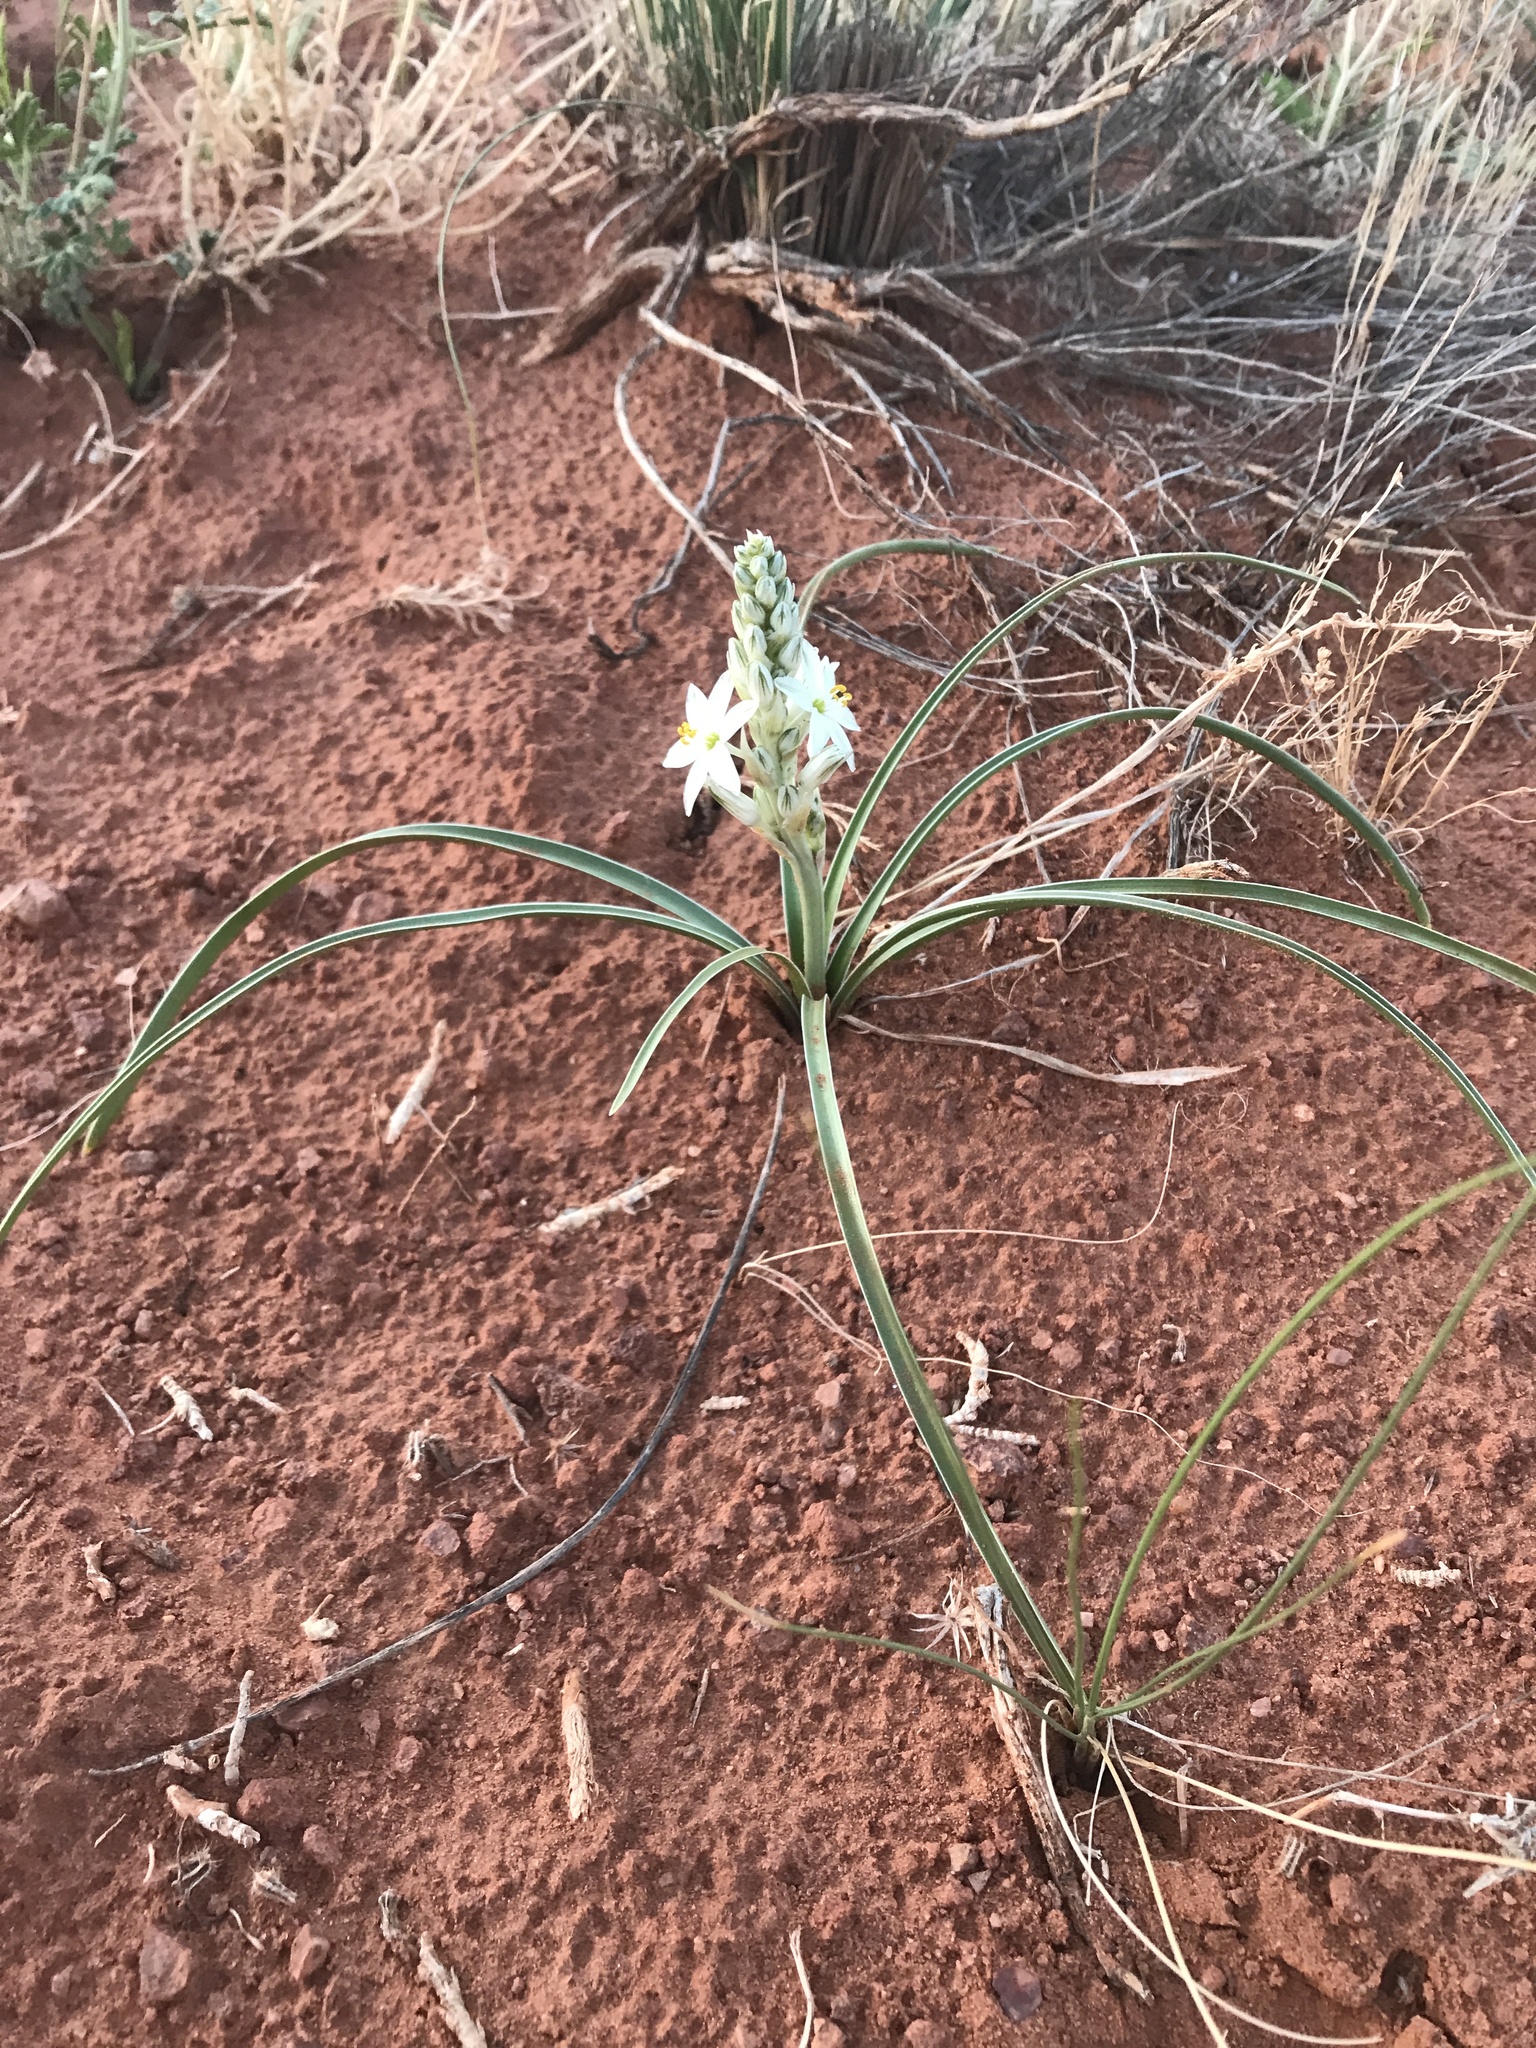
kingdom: Plantae
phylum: Tracheophyta
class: Liliopsida
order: Asparagales
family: Asparagaceae
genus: Eremocrinum
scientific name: Eremocrinum albomarginatum
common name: Sand-lily
